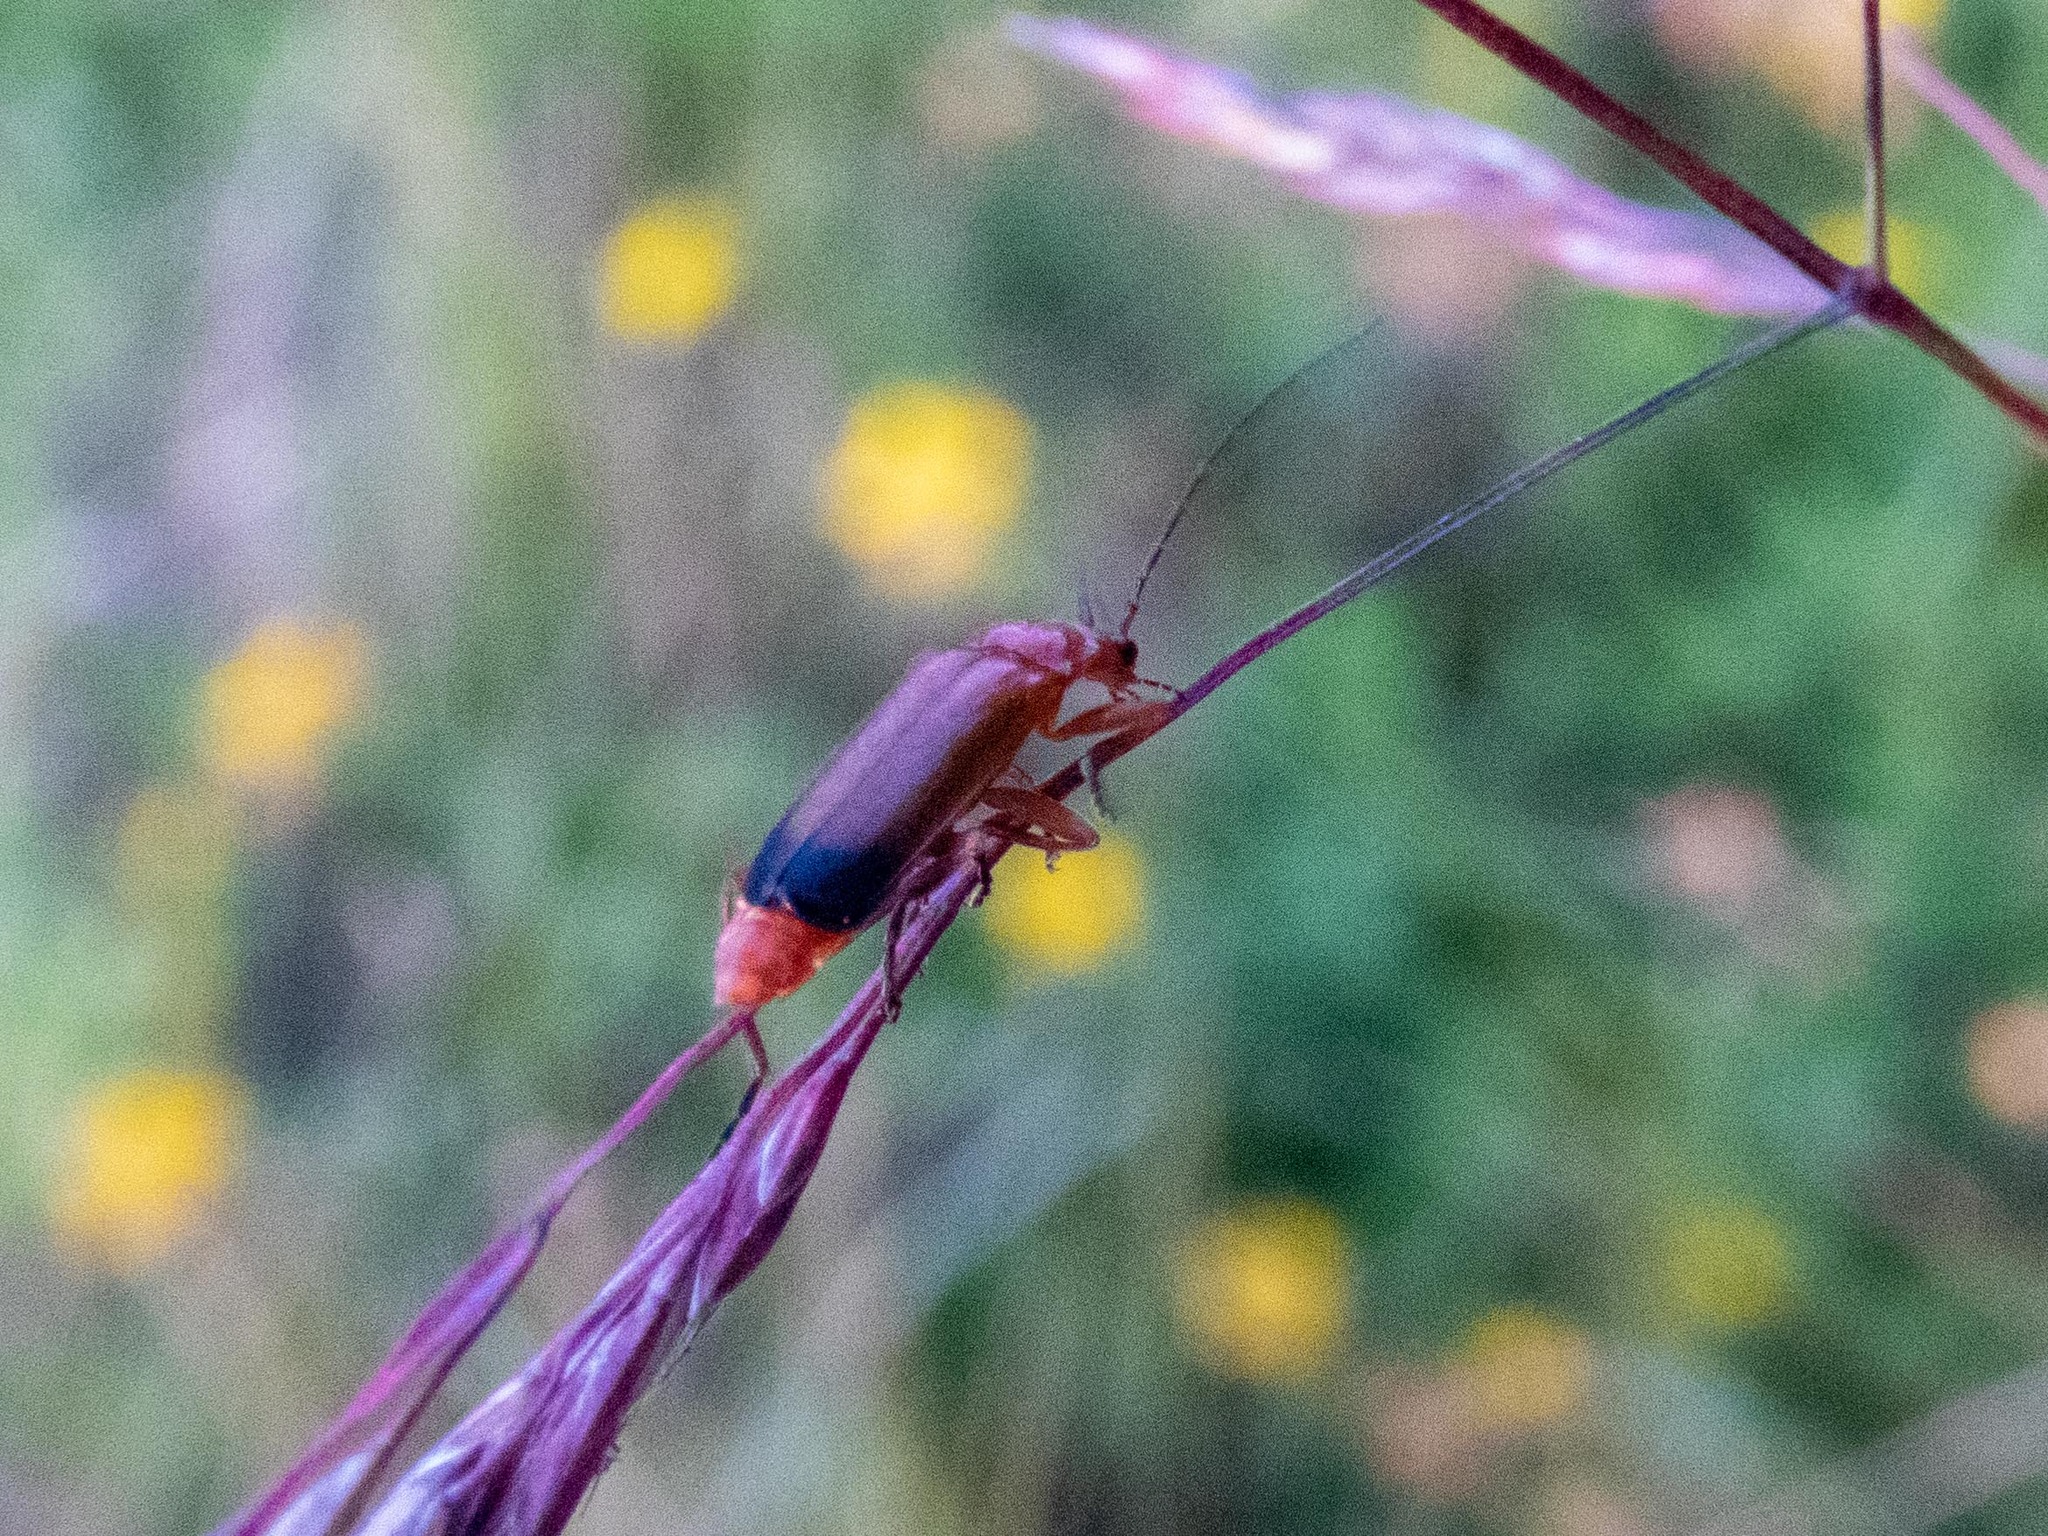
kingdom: Animalia
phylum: Arthropoda
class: Insecta
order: Coleoptera
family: Cantharidae
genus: Rhagonycha
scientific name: Rhagonycha fulva
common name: Common red soldier beetle
